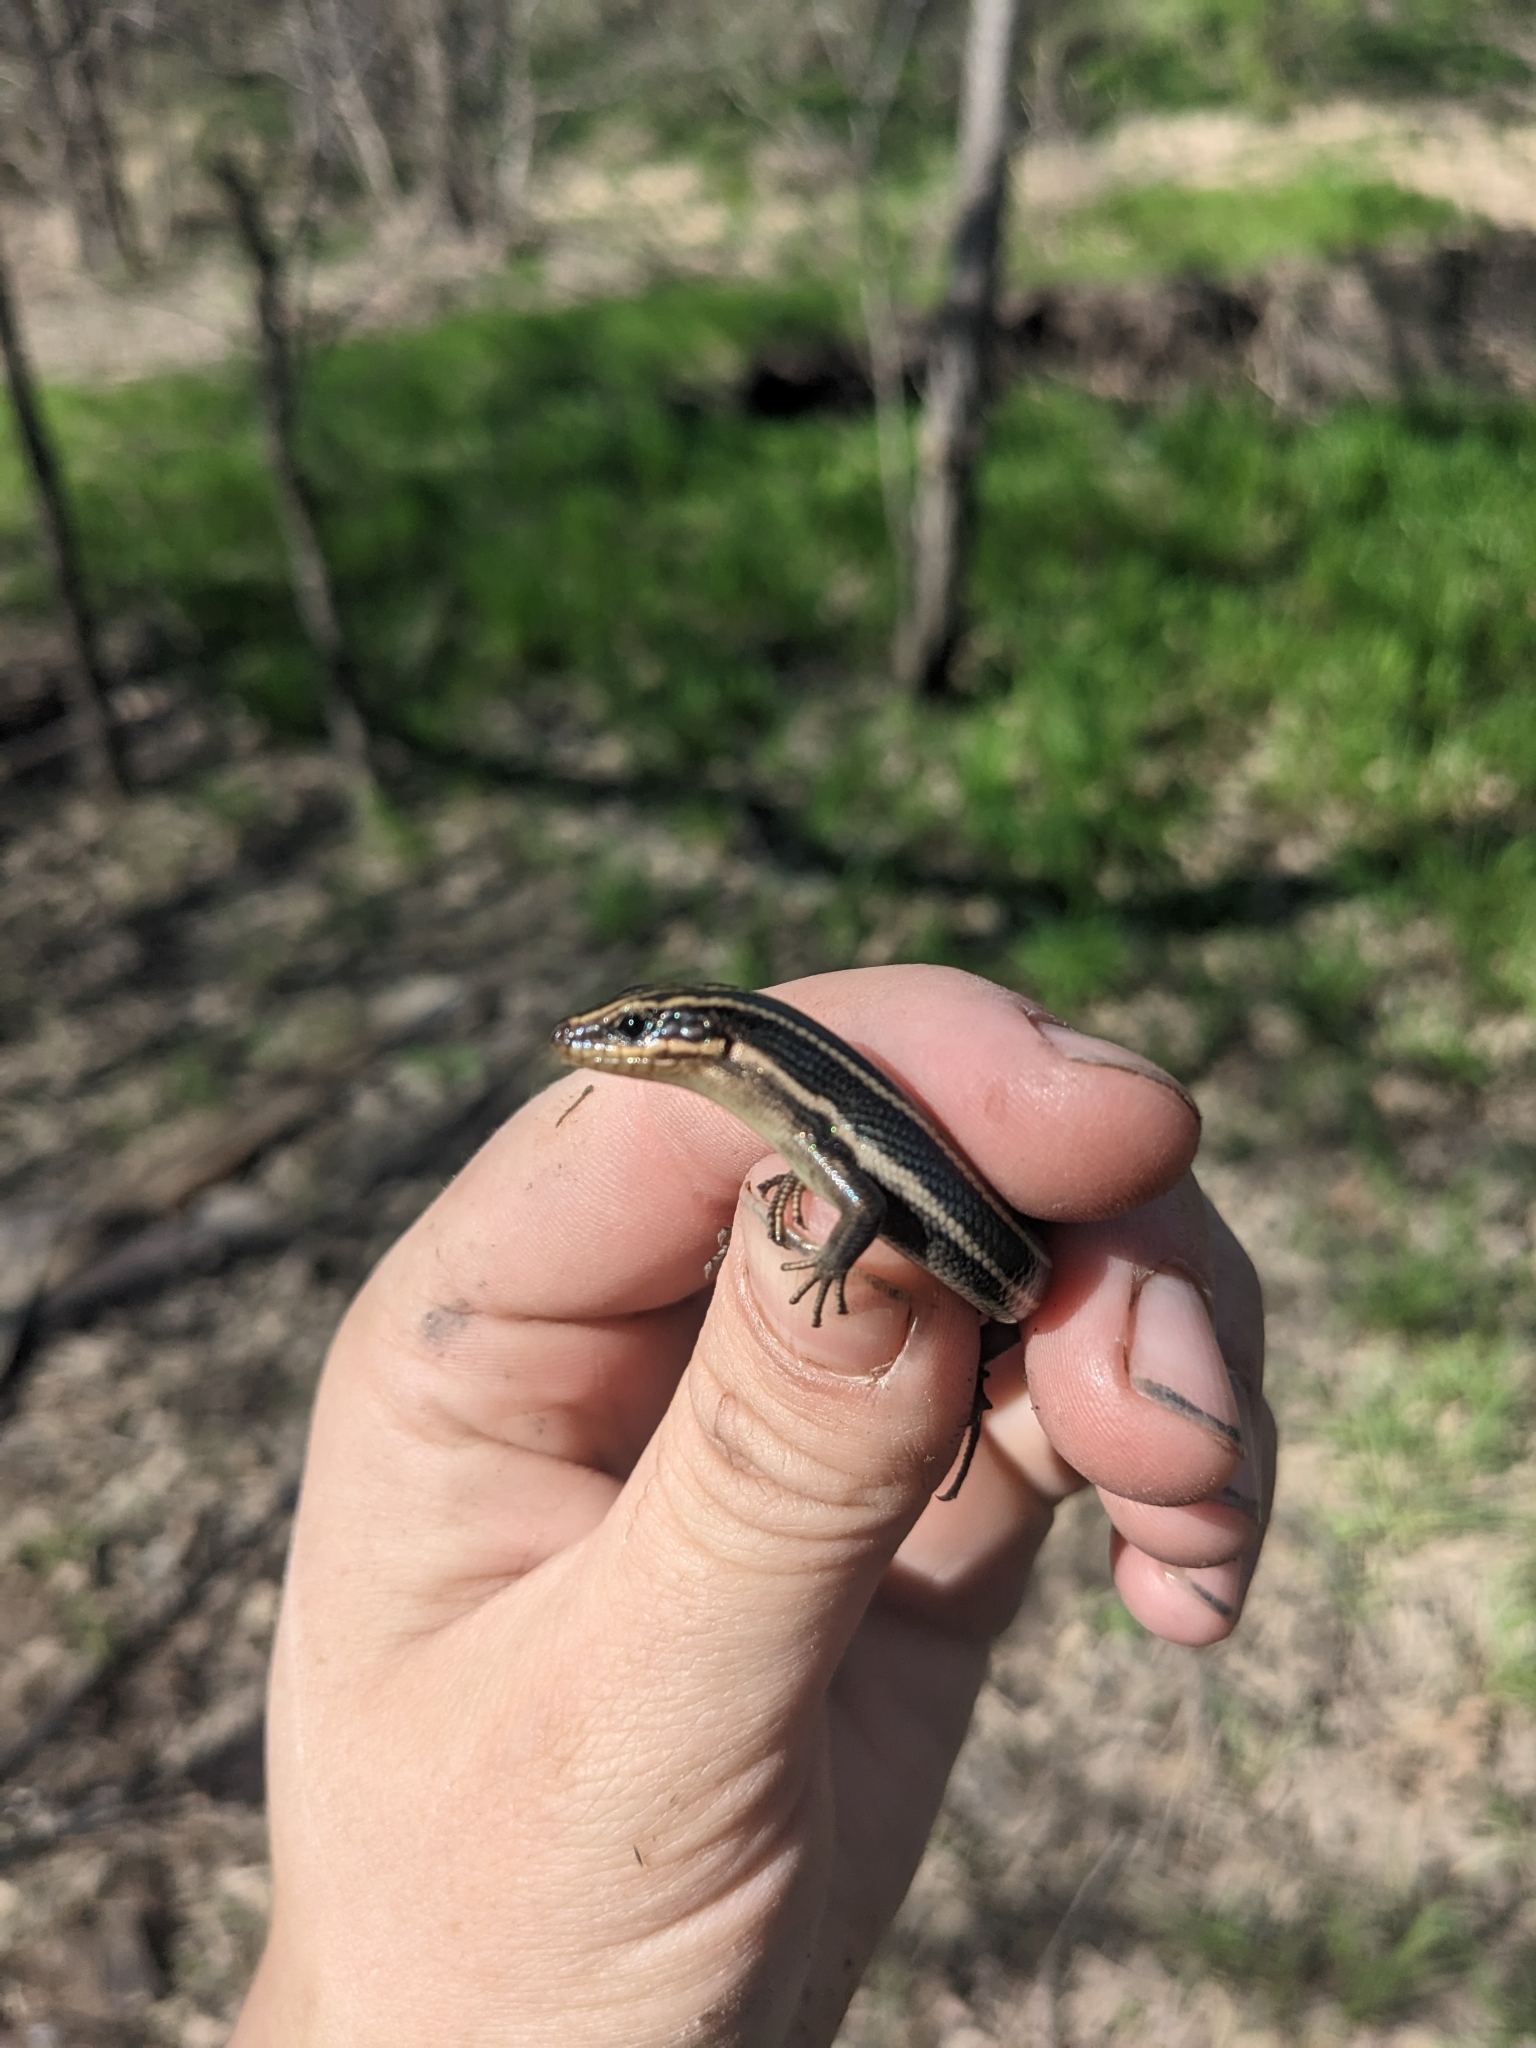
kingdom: Animalia
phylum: Chordata
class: Squamata
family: Scincidae
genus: Plestiodon
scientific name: Plestiodon
